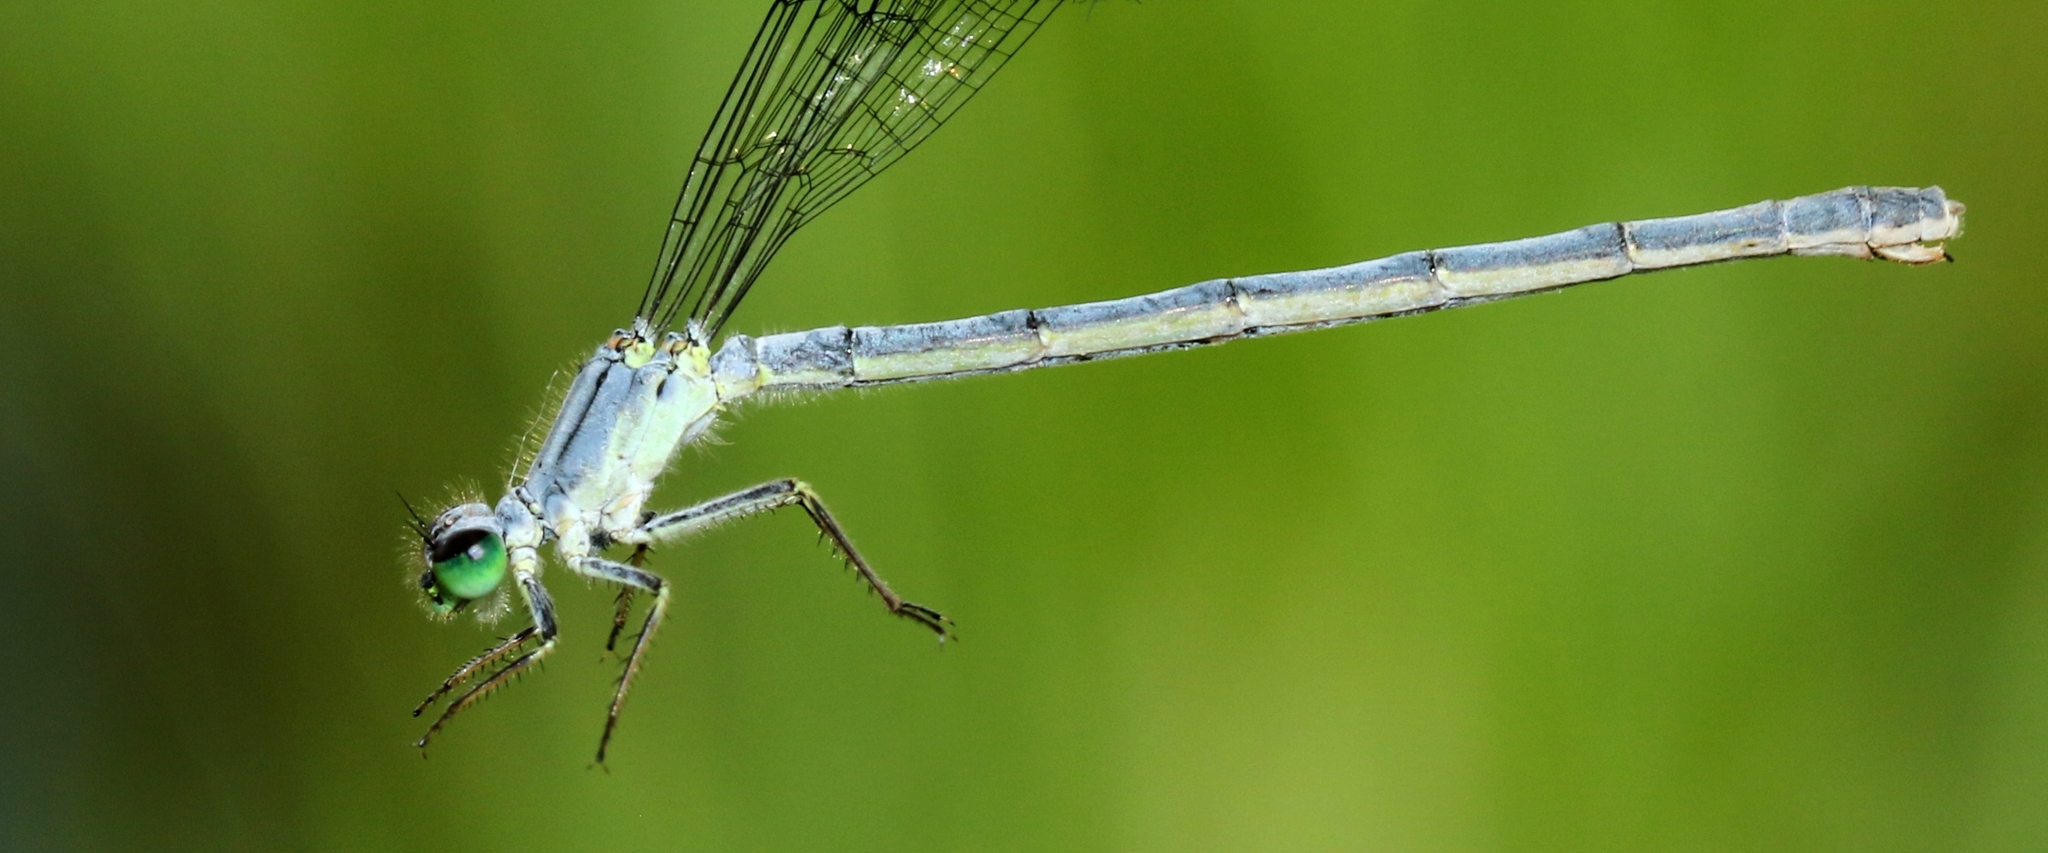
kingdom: Animalia
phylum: Arthropoda
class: Insecta
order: Odonata
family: Coenagrionidae
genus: Ischnura
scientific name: Ischnura verticalis
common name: Eastern forktail
